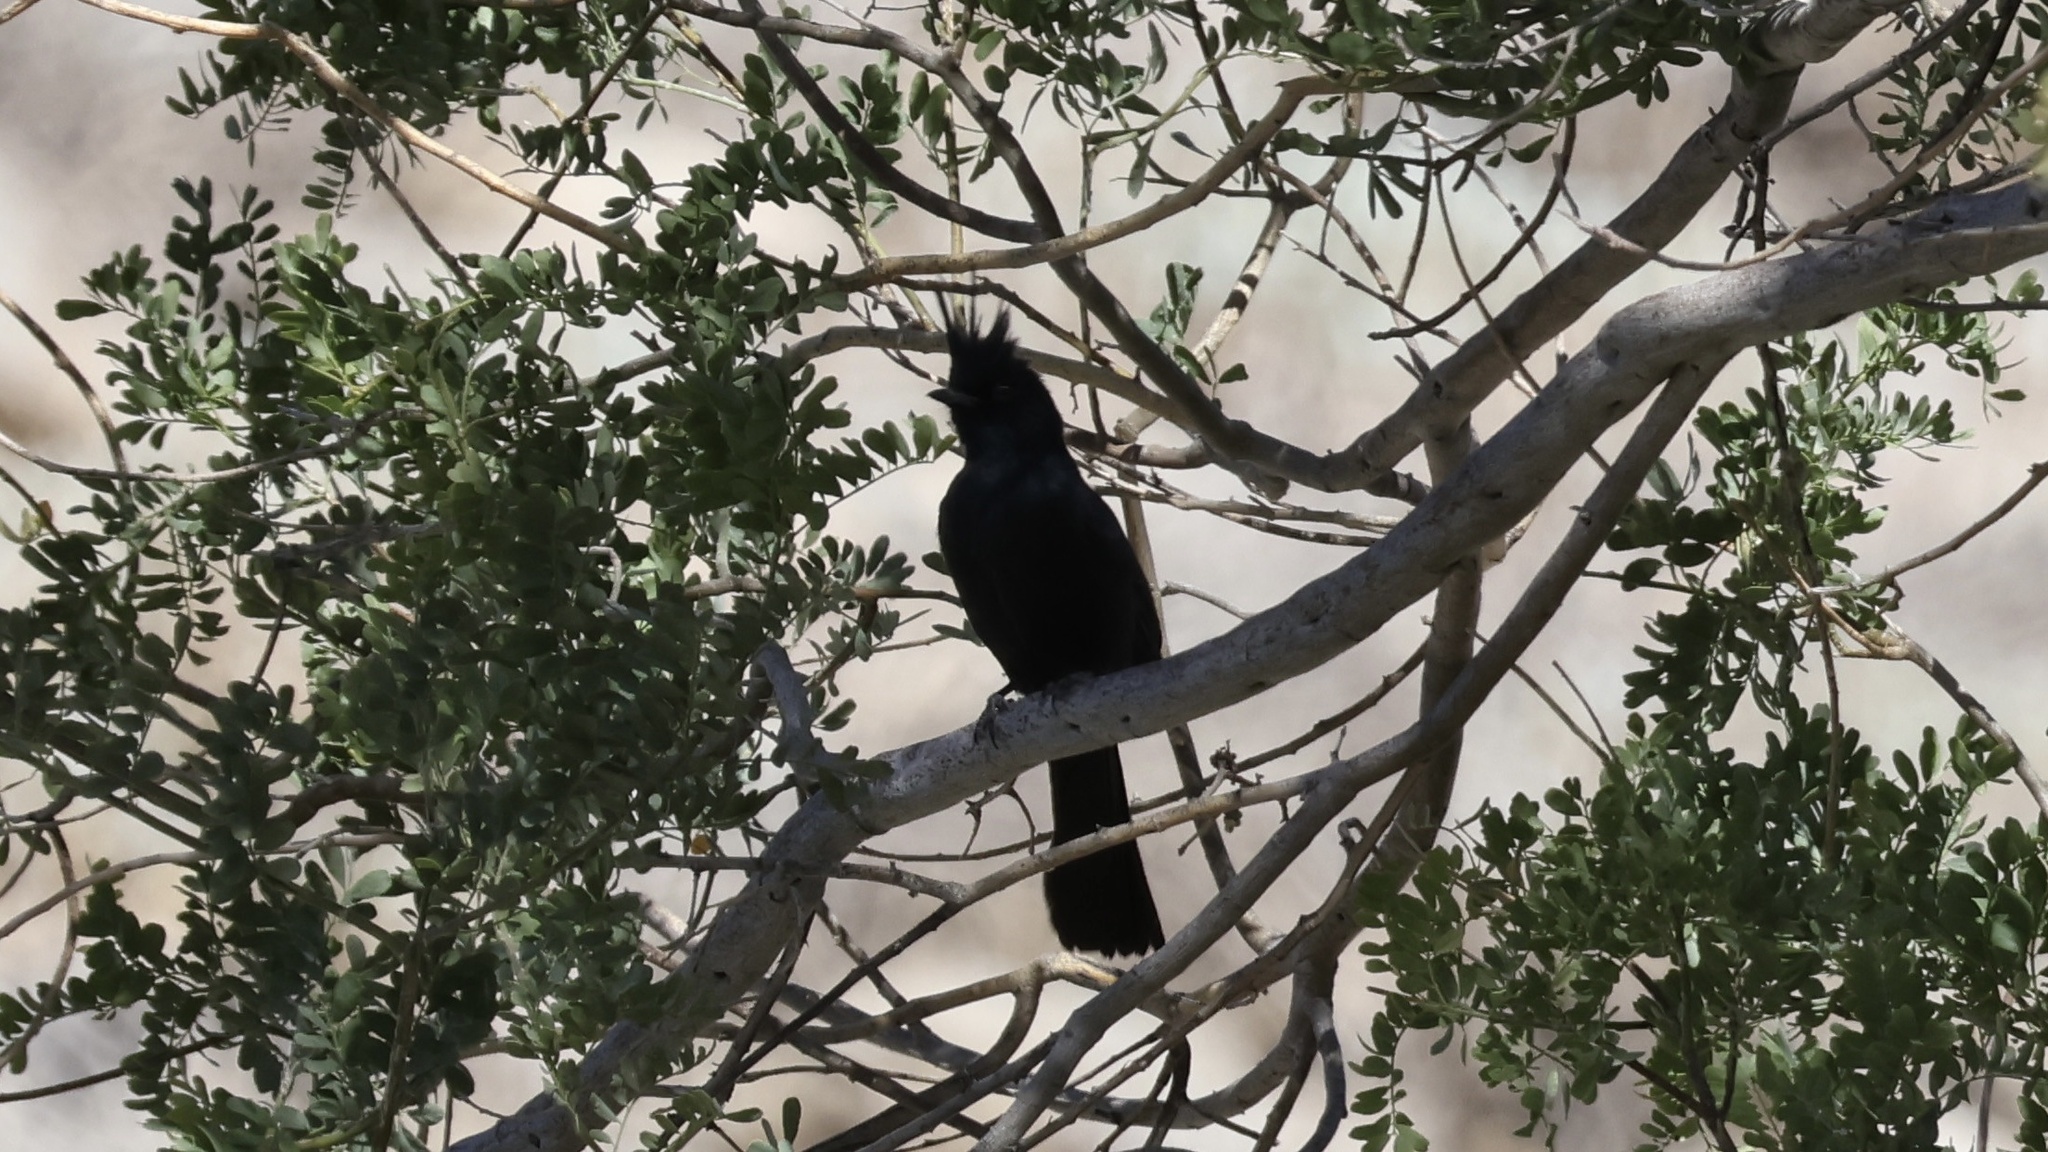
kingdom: Animalia
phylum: Chordata
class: Aves
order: Passeriformes
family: Ptilogonatidae
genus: Phainopepla
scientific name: Phainopepla nitens
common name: Phainopepla
